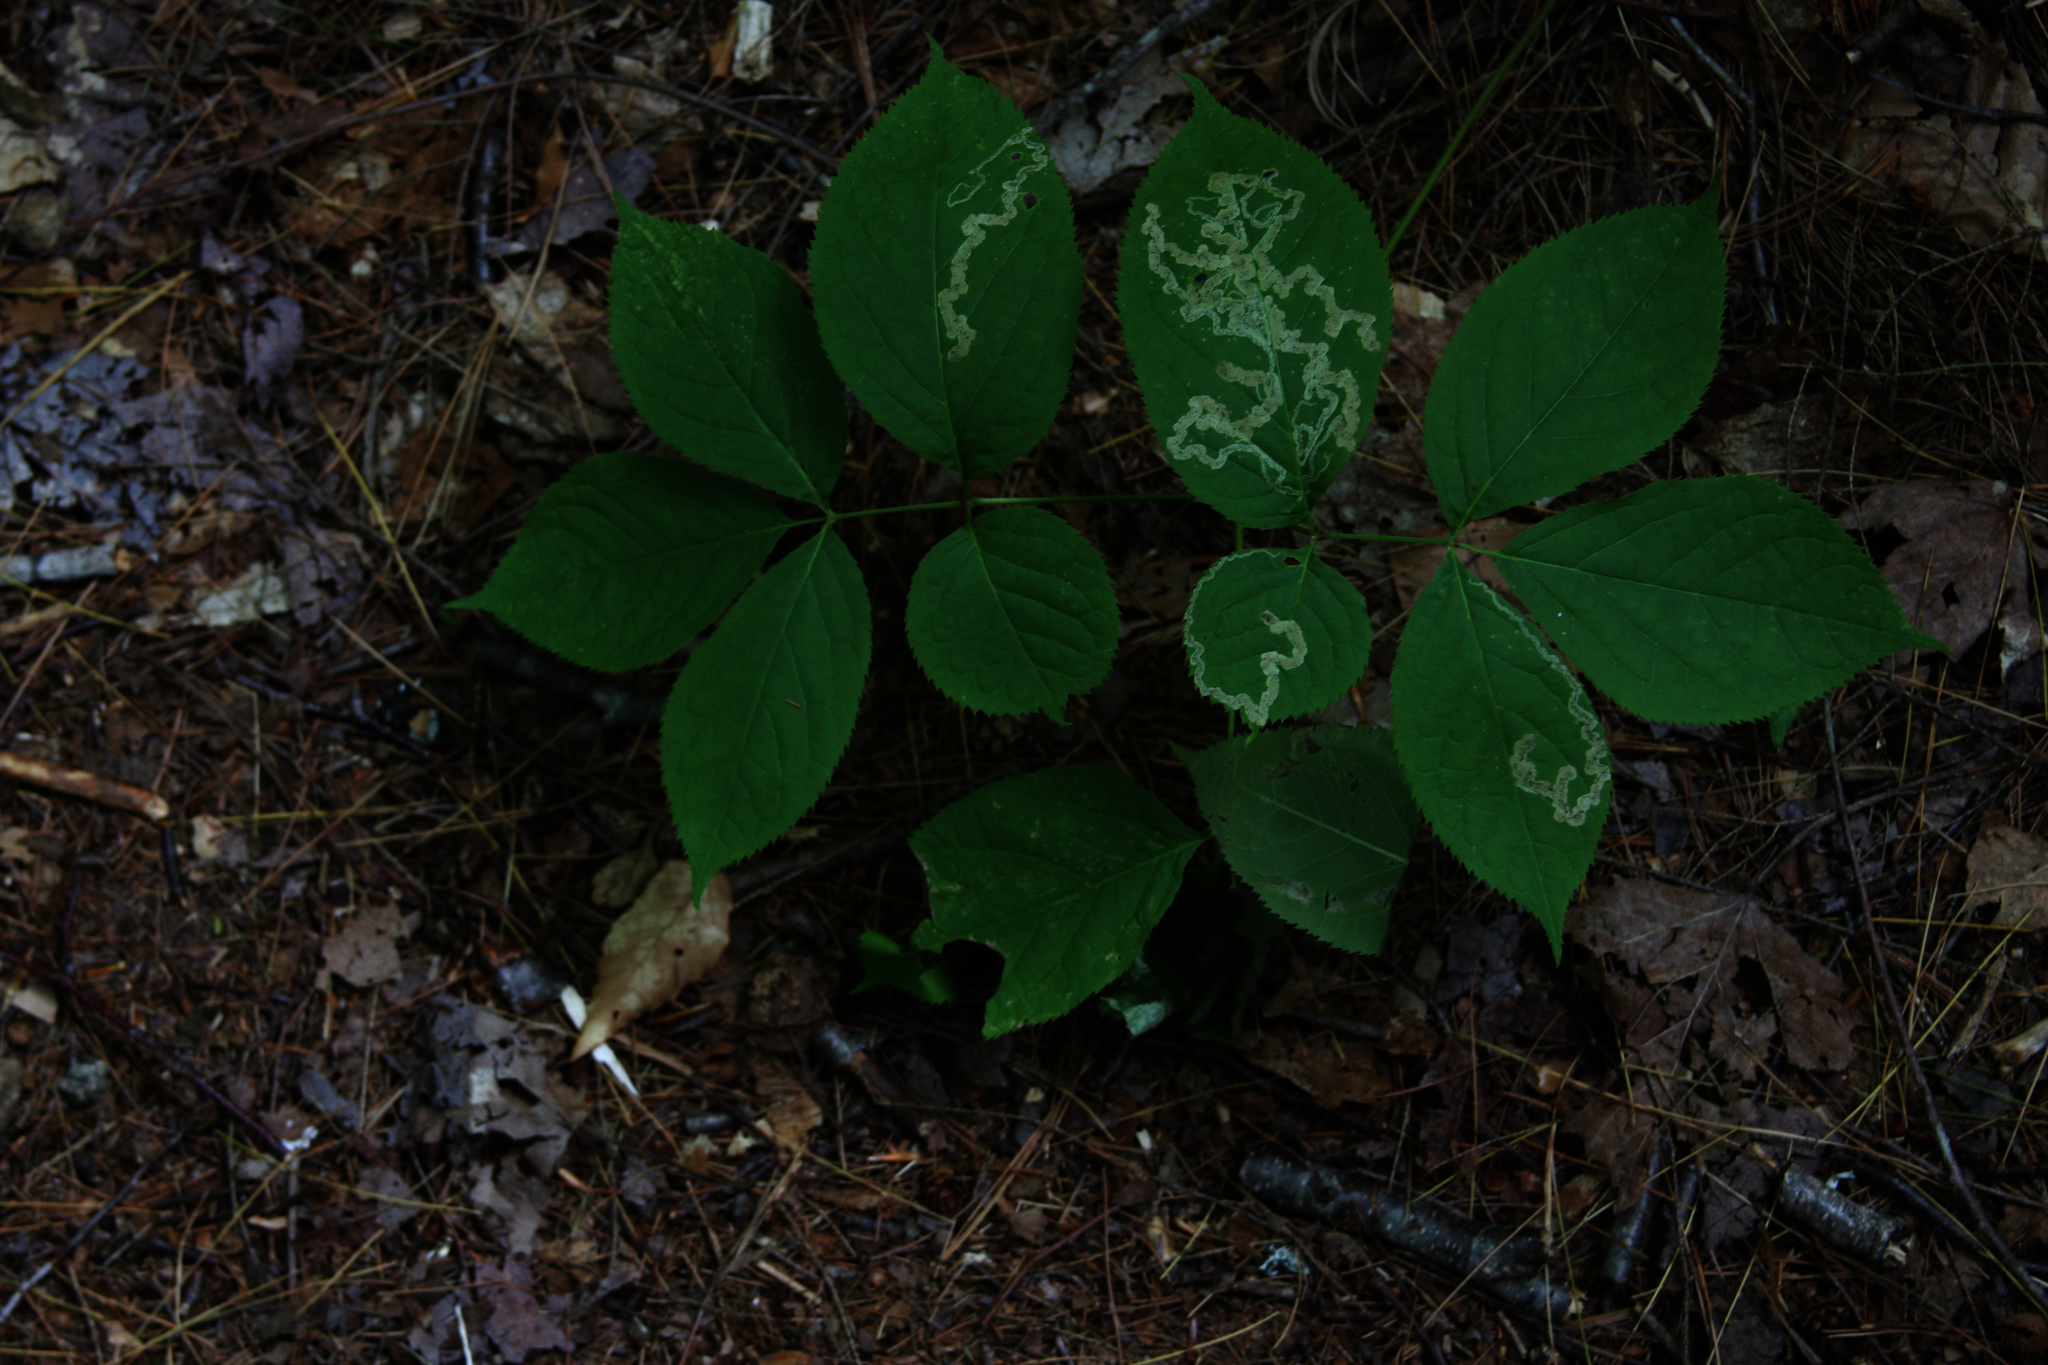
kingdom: Plantae
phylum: Tracheophyta
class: Magnoliopsida
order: Apiales
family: Araliaceae
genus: Aralia
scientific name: Aralia nudicaulis
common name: Wild sarsaparilla
